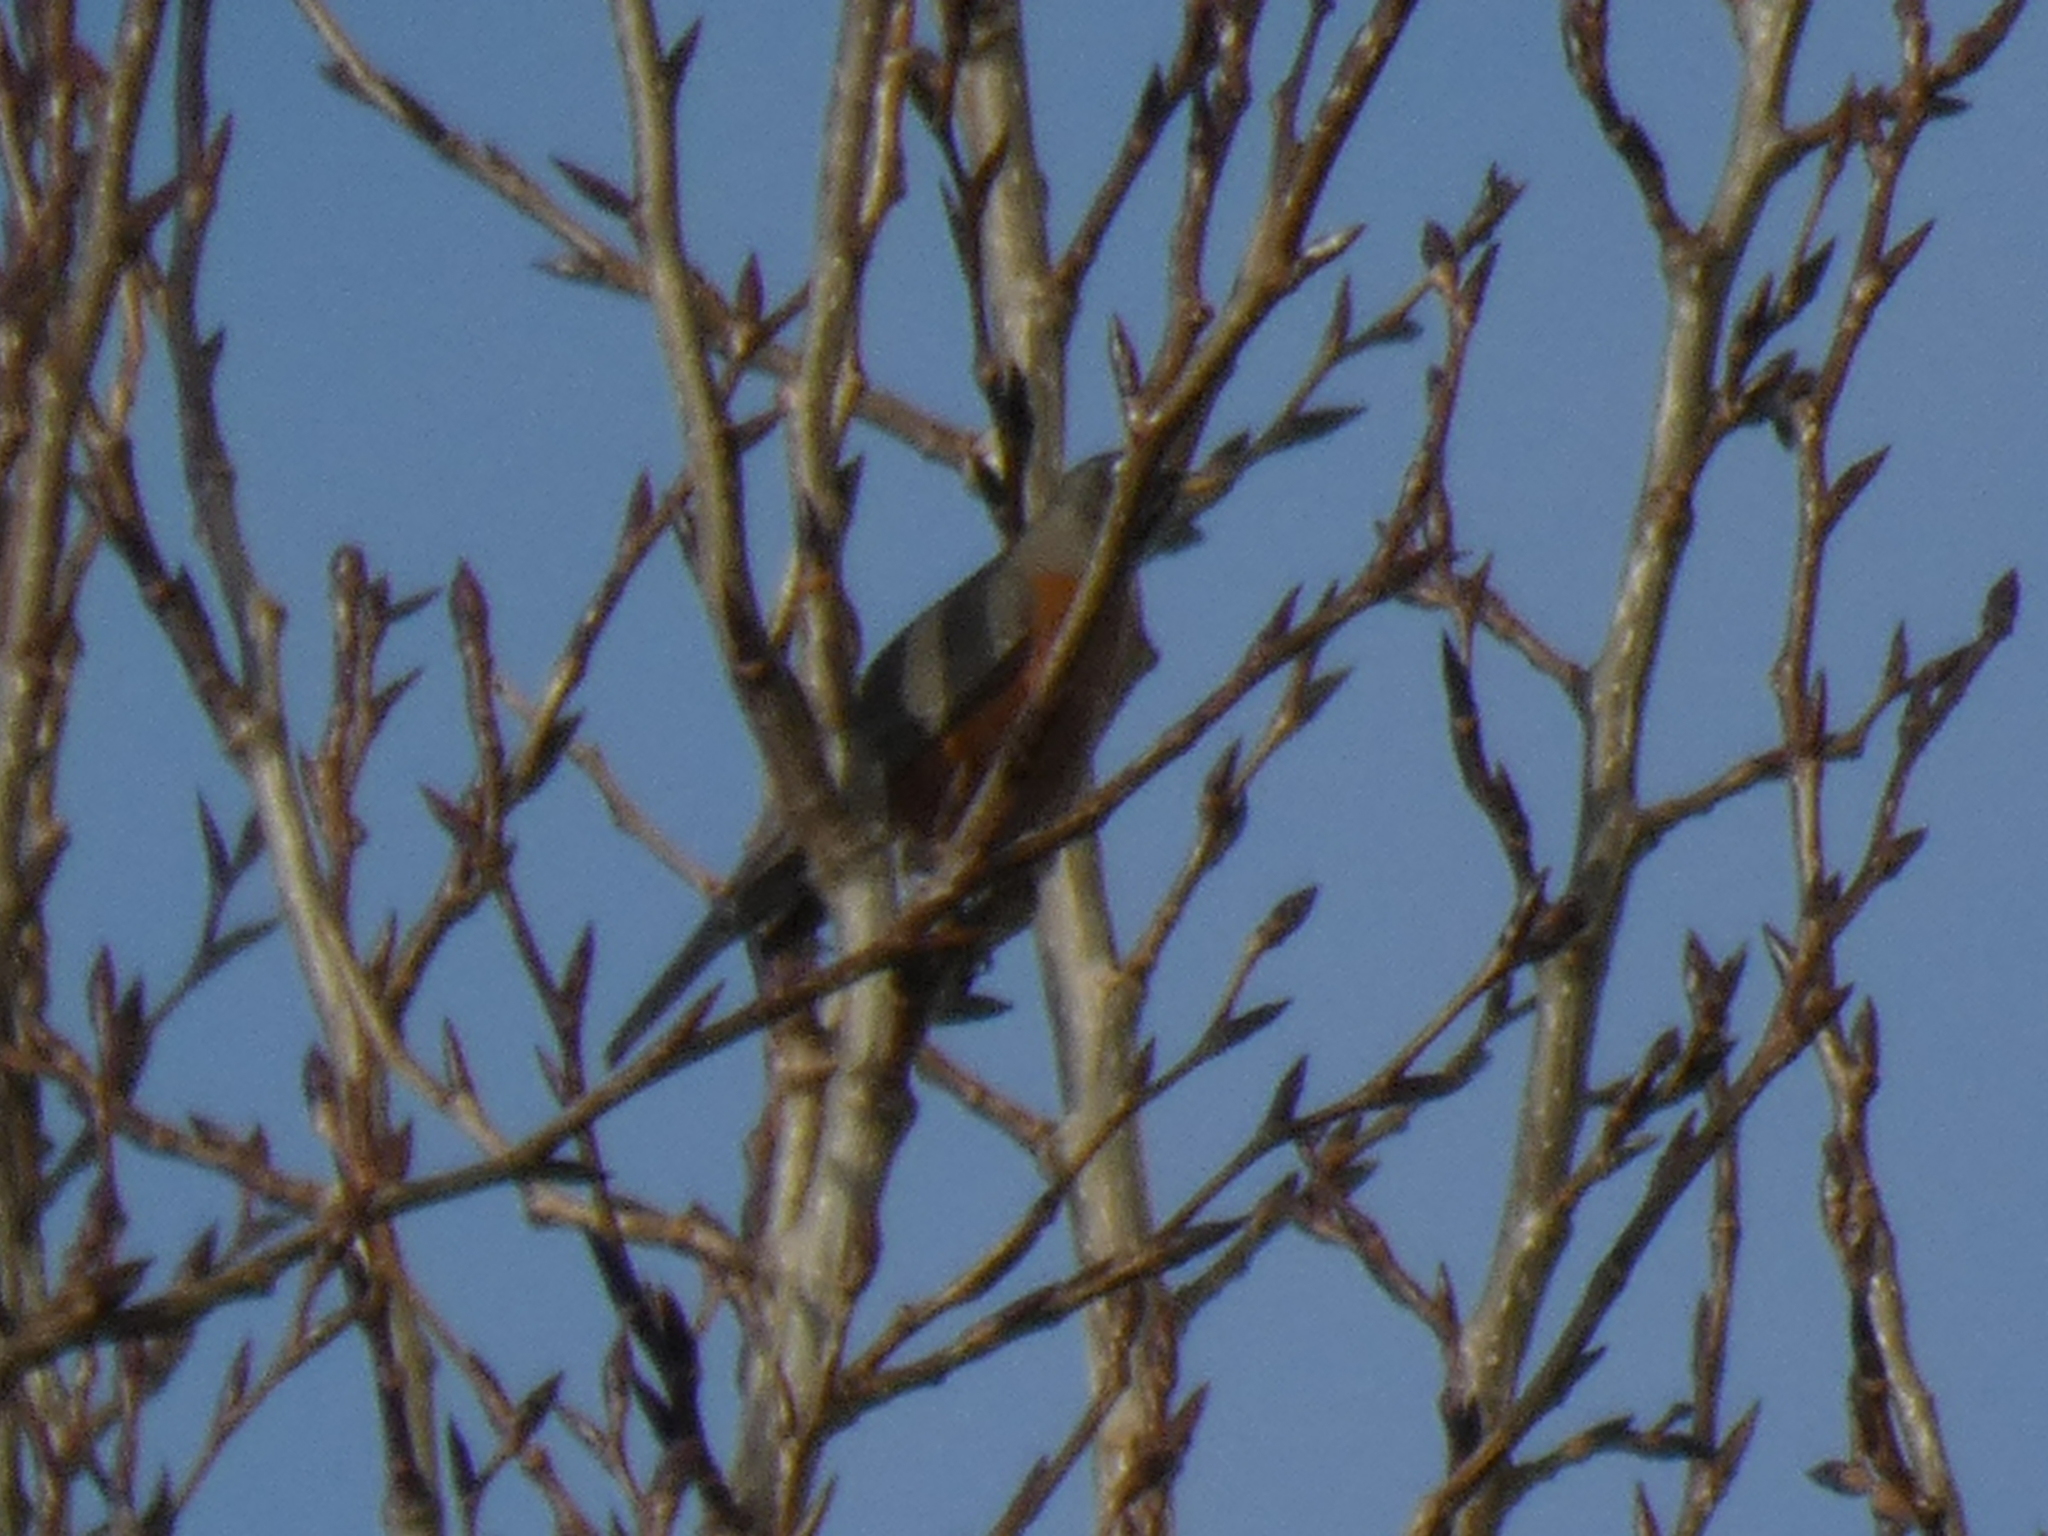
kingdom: Animalia
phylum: Chordata
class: Aves
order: Passeriformes
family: Turdidae
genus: Turdus
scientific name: Turdus migratorius
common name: American robin
